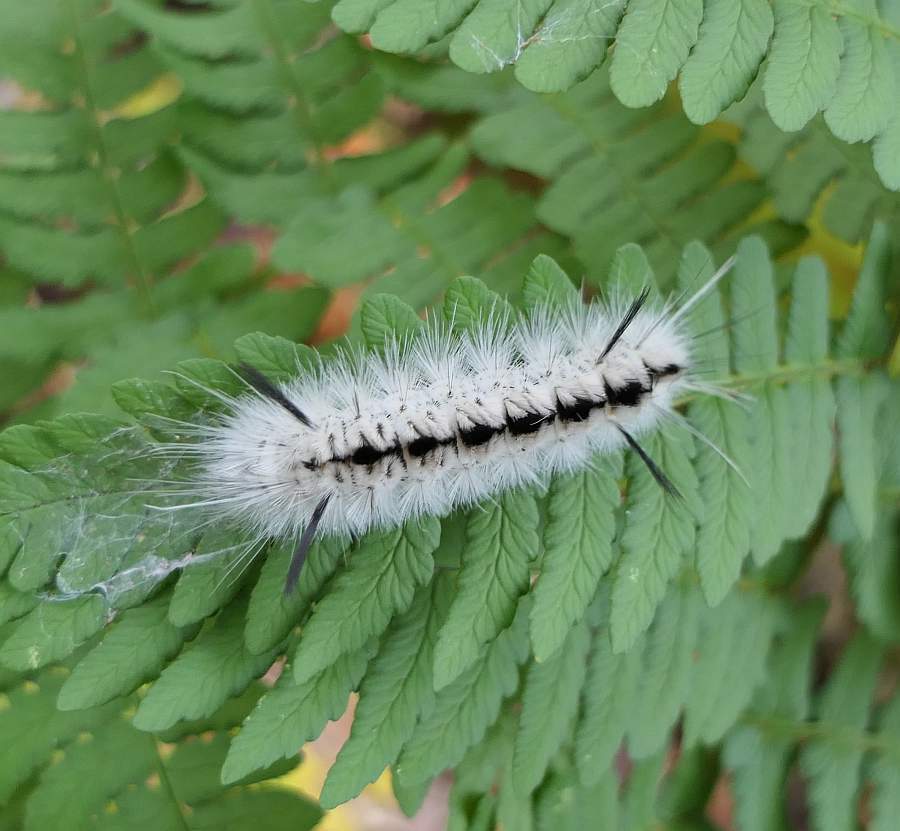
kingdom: Animalia
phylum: Arthropoda
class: Insecta
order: Lepidoptera
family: Erebidae
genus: Lophocampa
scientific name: Lophocampa caryae
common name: Hickory tussock moth
